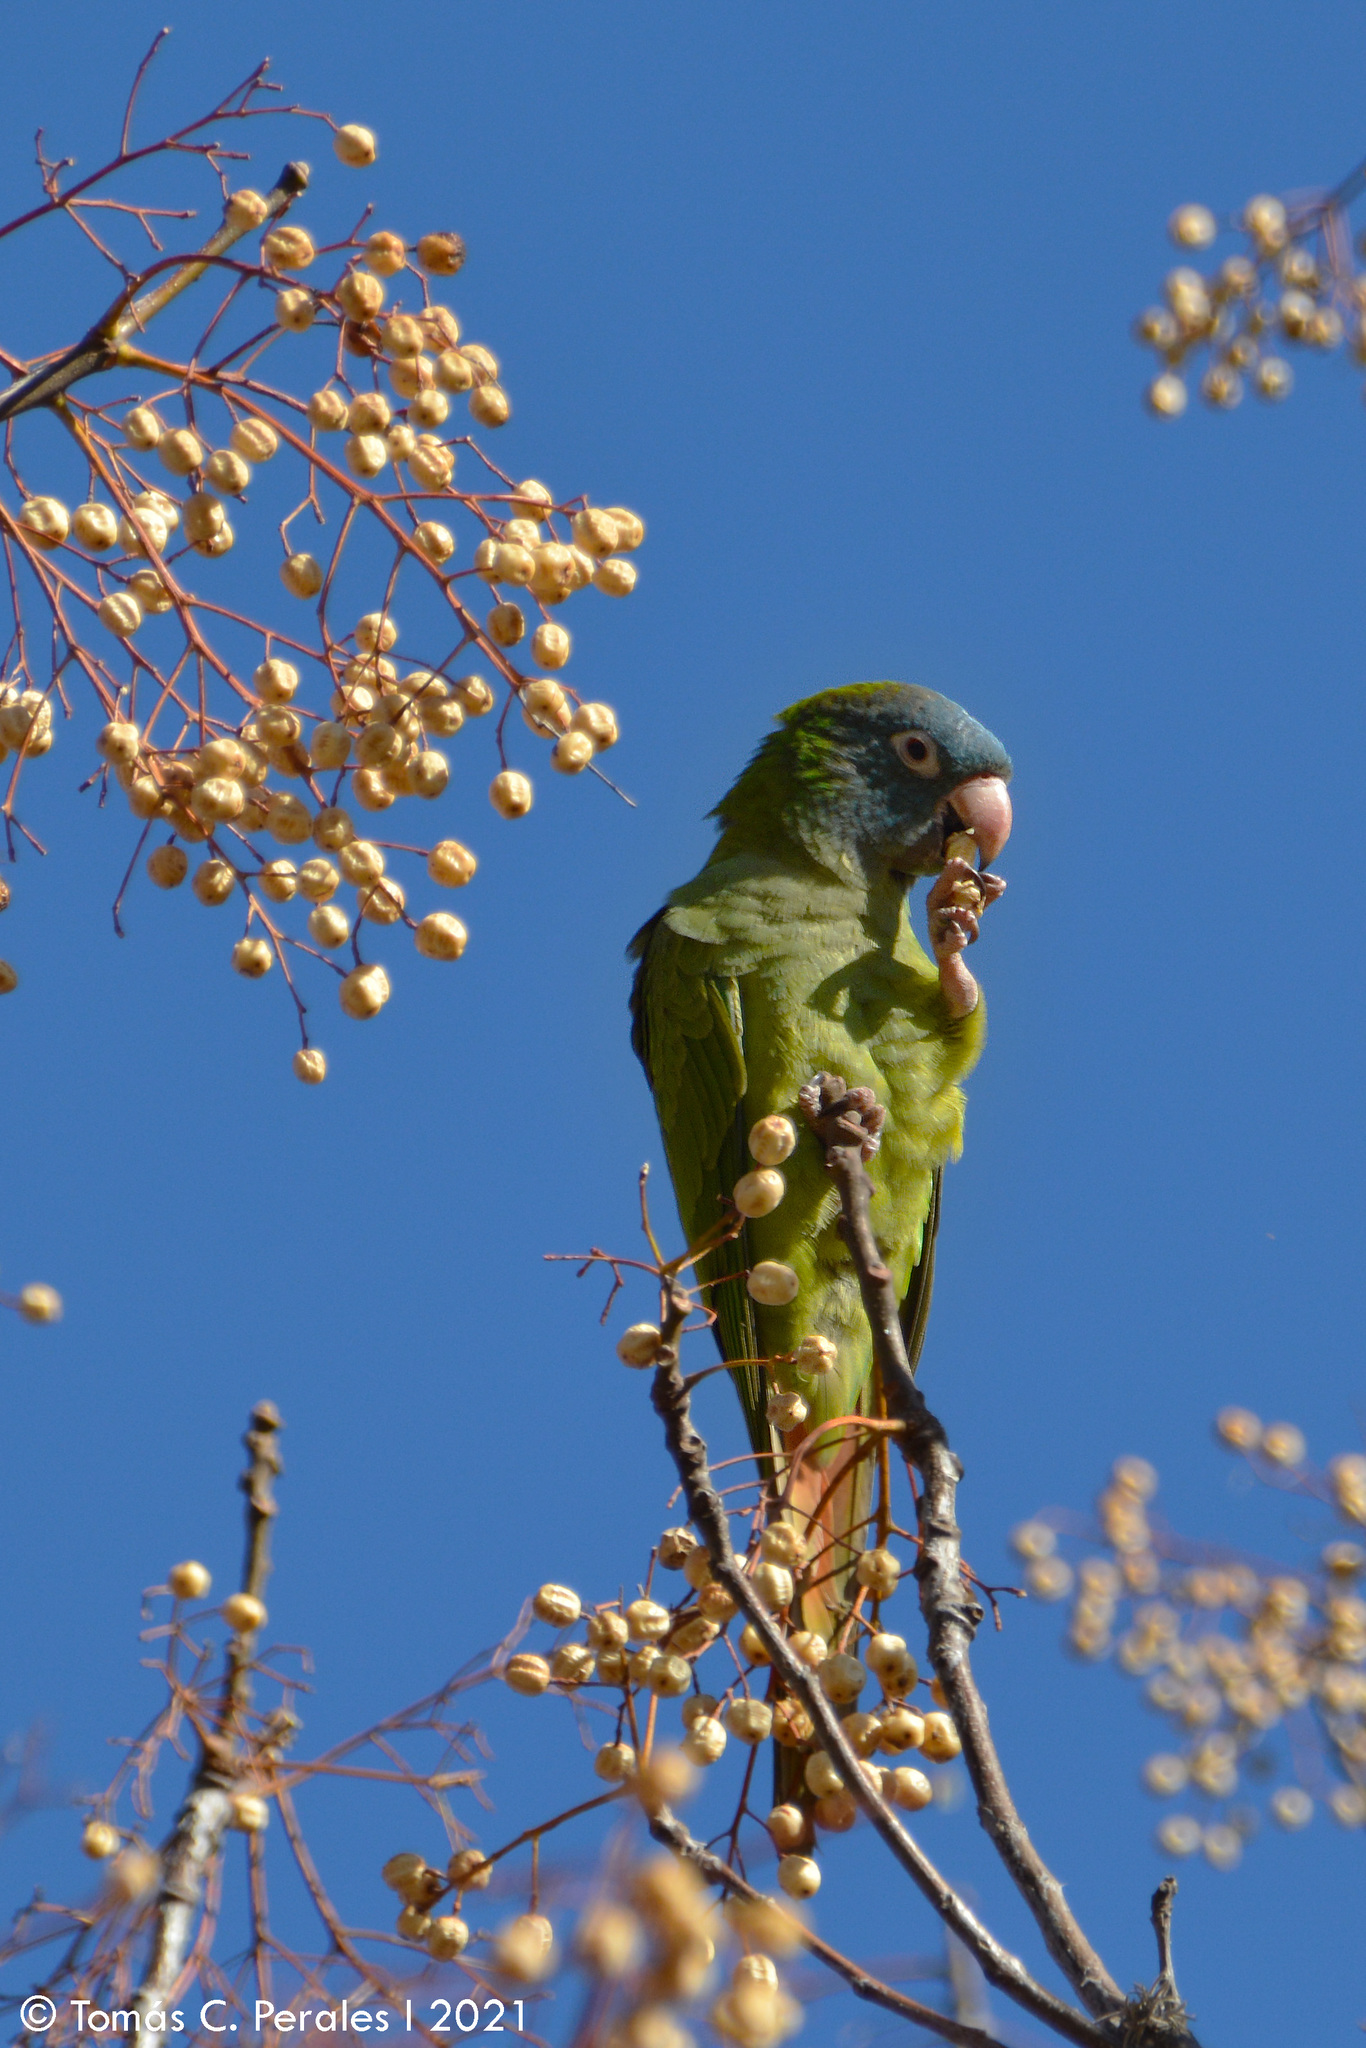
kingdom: Plantae
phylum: Tracheophyta
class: Magnoliopsida
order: Sapindales
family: Meliaceae
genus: Melia
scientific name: Melia azedarach
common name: Chinaberrytree
